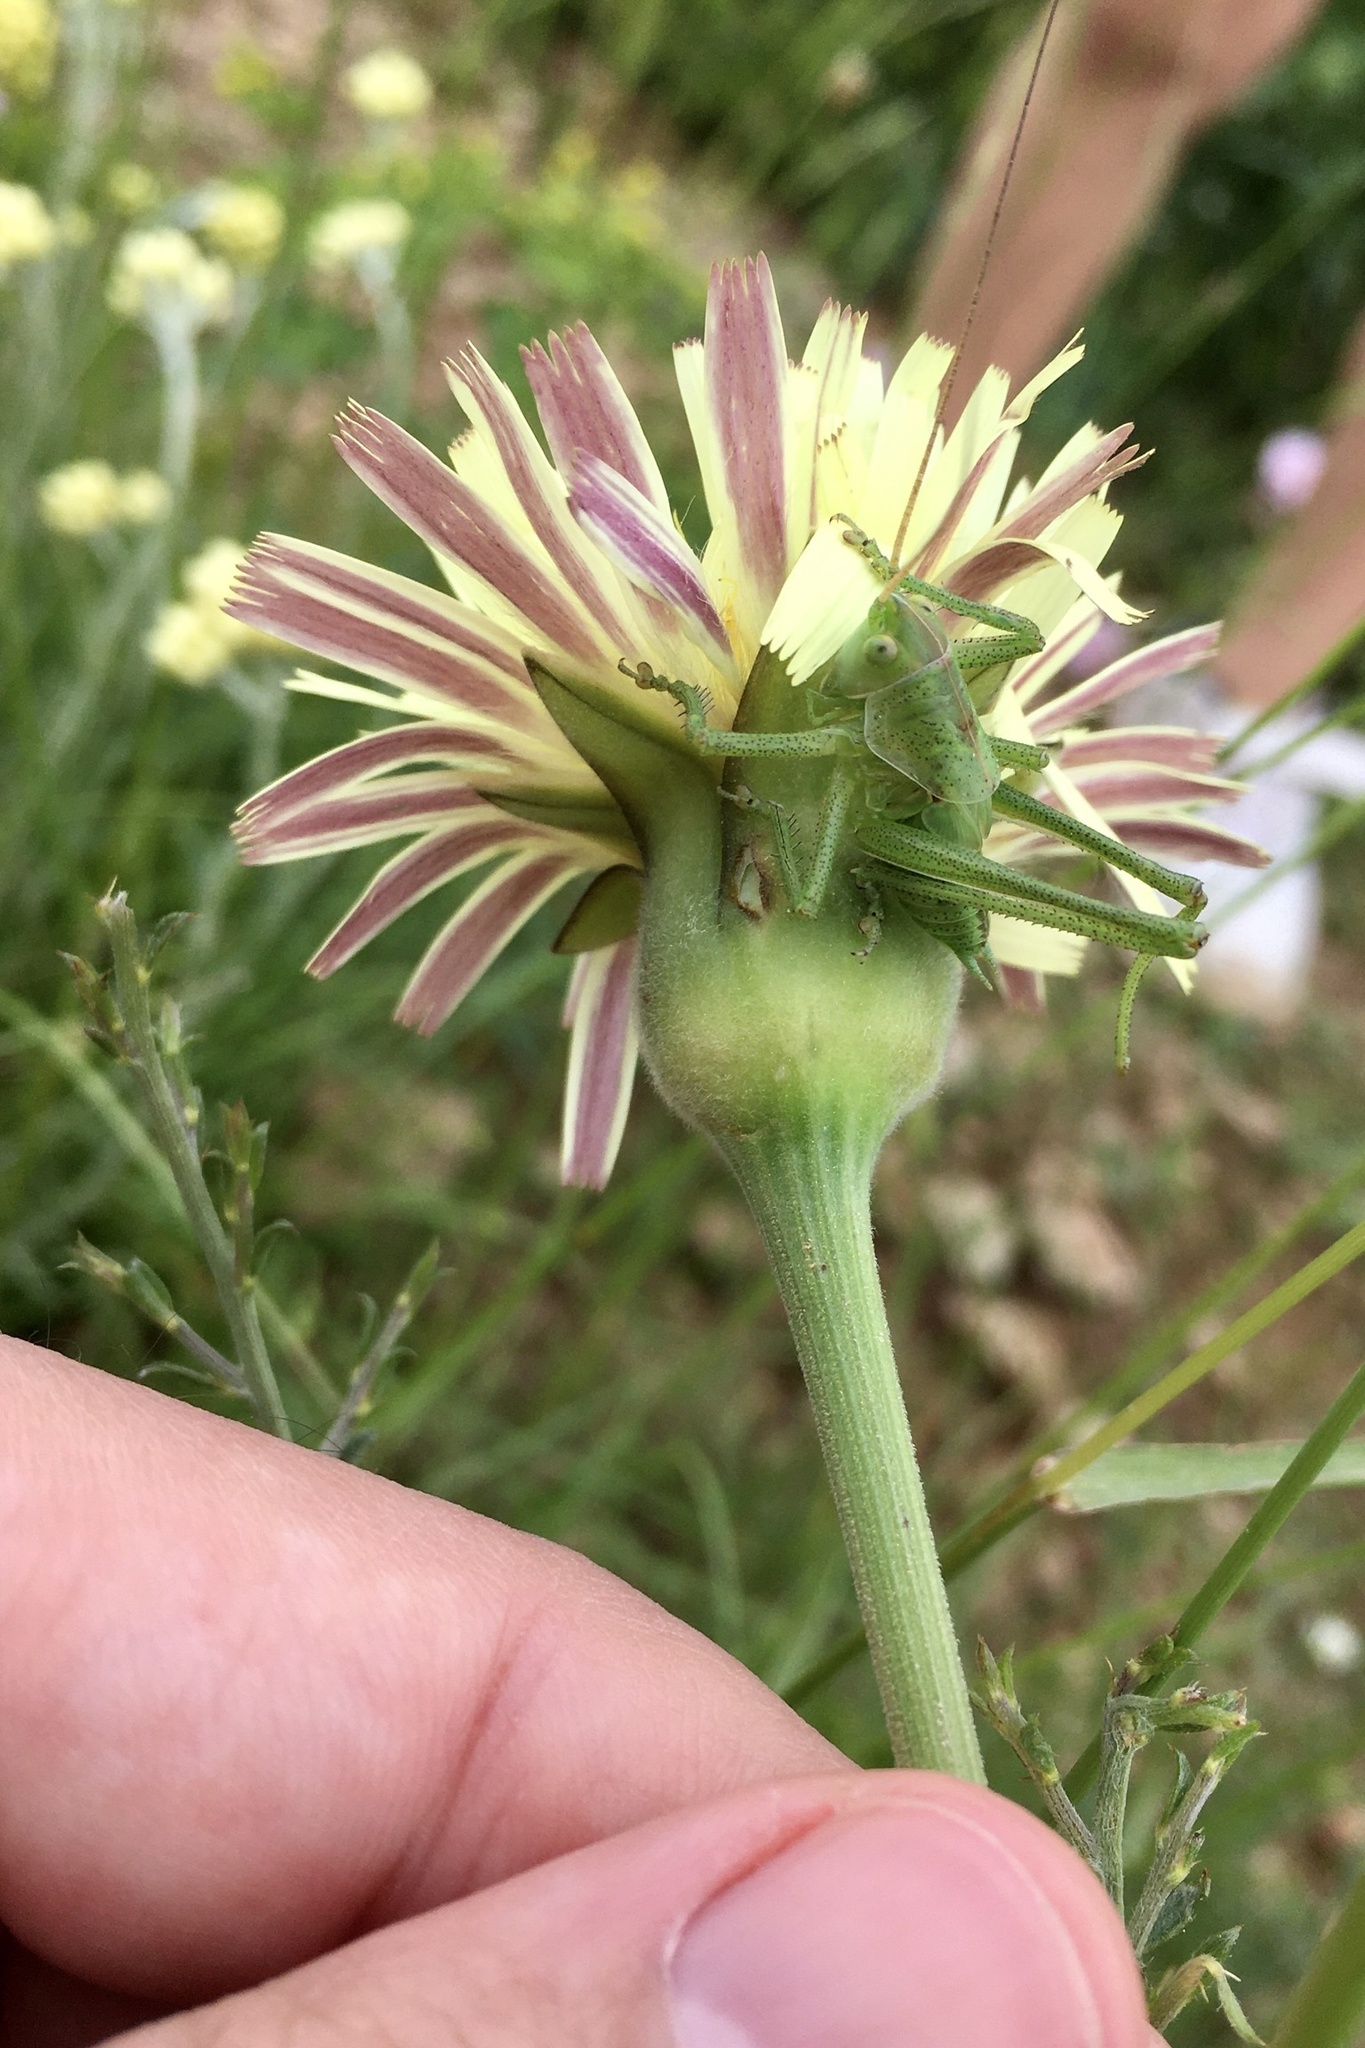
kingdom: Animalia
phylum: Arthropoda
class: Insecta
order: Orthoptera
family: Tettigoniidae
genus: Tettigonia
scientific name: Tettigonia viridissima
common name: Great green bush-cricket
